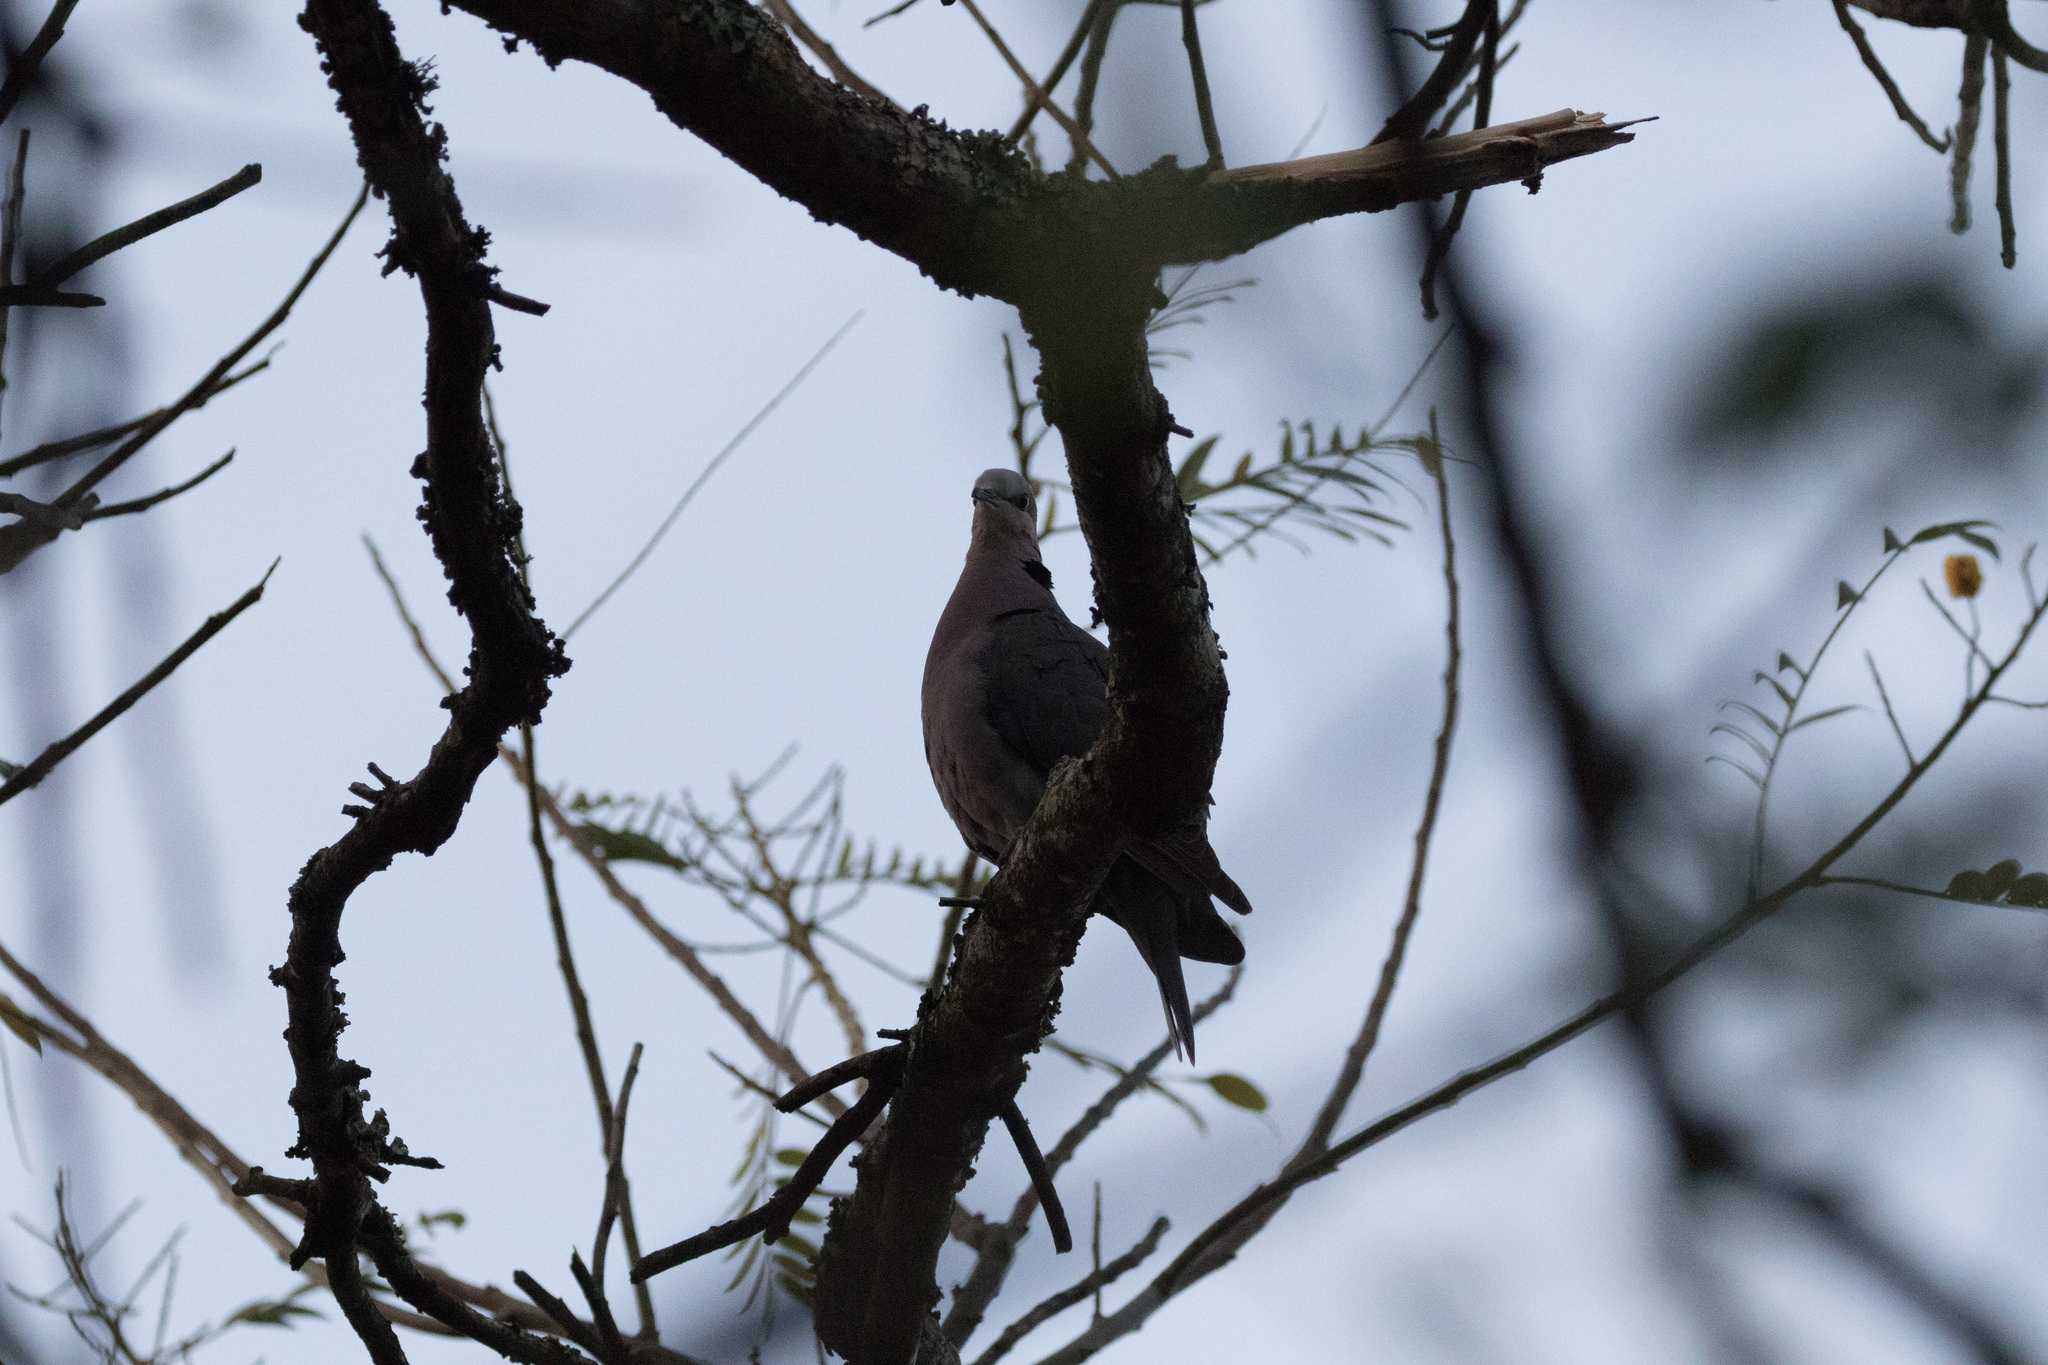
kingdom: Animalia
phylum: Chordata
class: Aves
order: Columbiformes
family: Columbidae
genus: Streptopelia
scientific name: Streptopelia semitorquata
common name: Red-eyed dove
